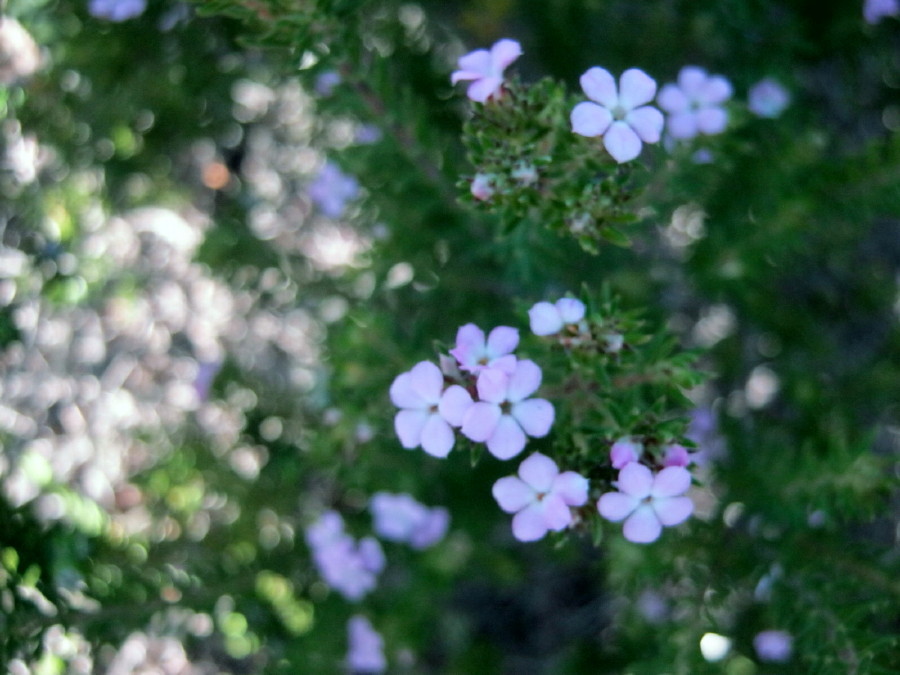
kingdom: Plantae
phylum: Tracheophyta
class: Magnoliopsida
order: Sapindales
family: Rutaceae
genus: Acmadenia
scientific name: Acmadenia alternifolia
